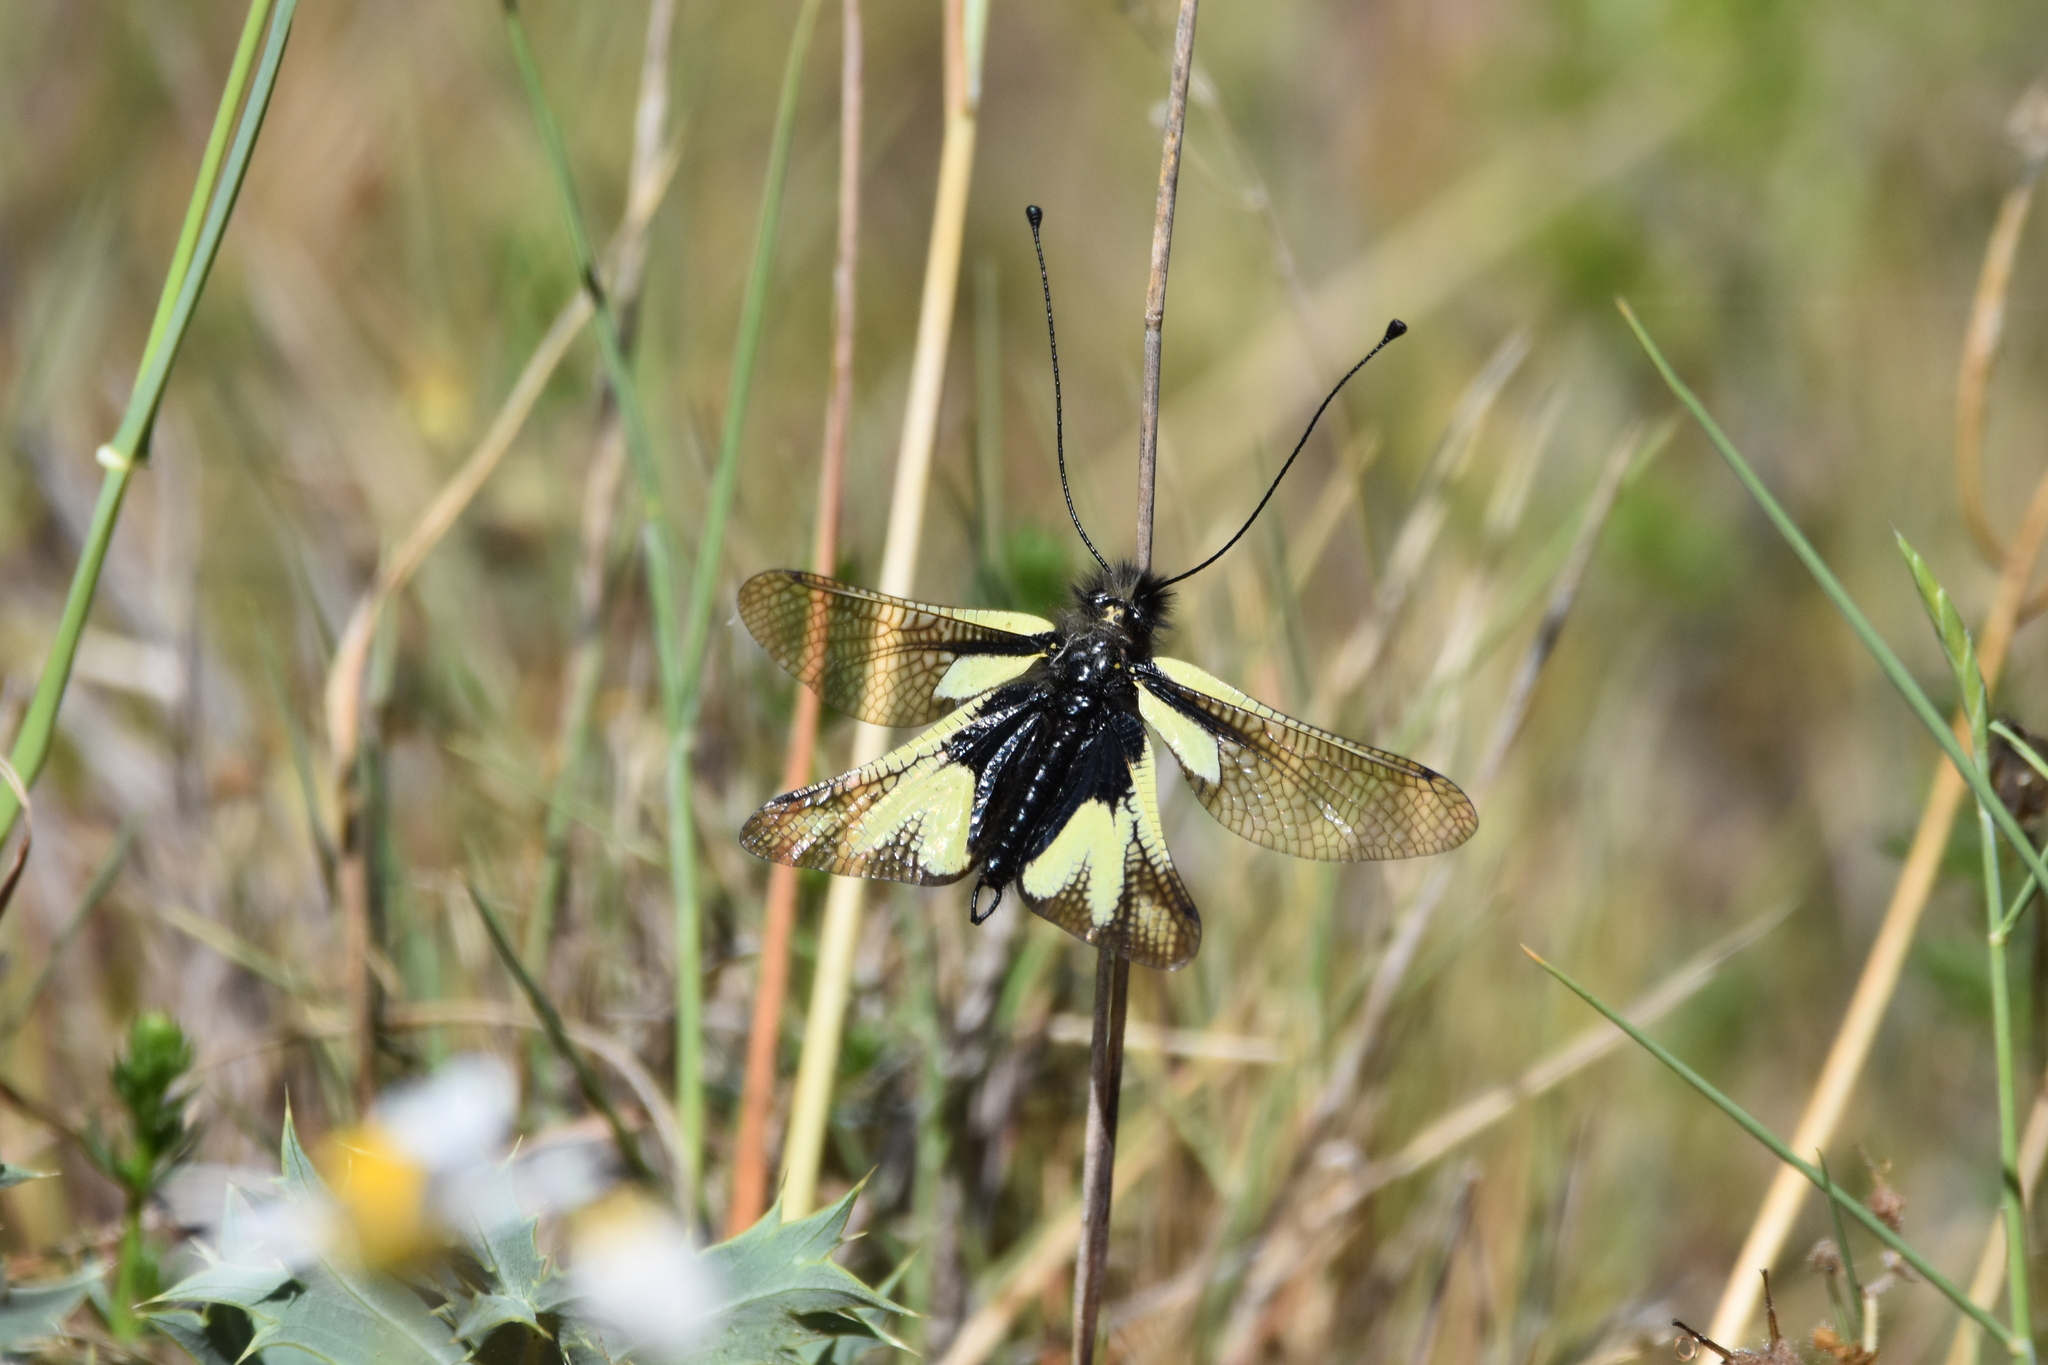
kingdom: Animalia
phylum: Arthropoda
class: Insecta
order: Neuroptera
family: Ascalaphidae
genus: Libelloides
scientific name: Libelloides coccajus
